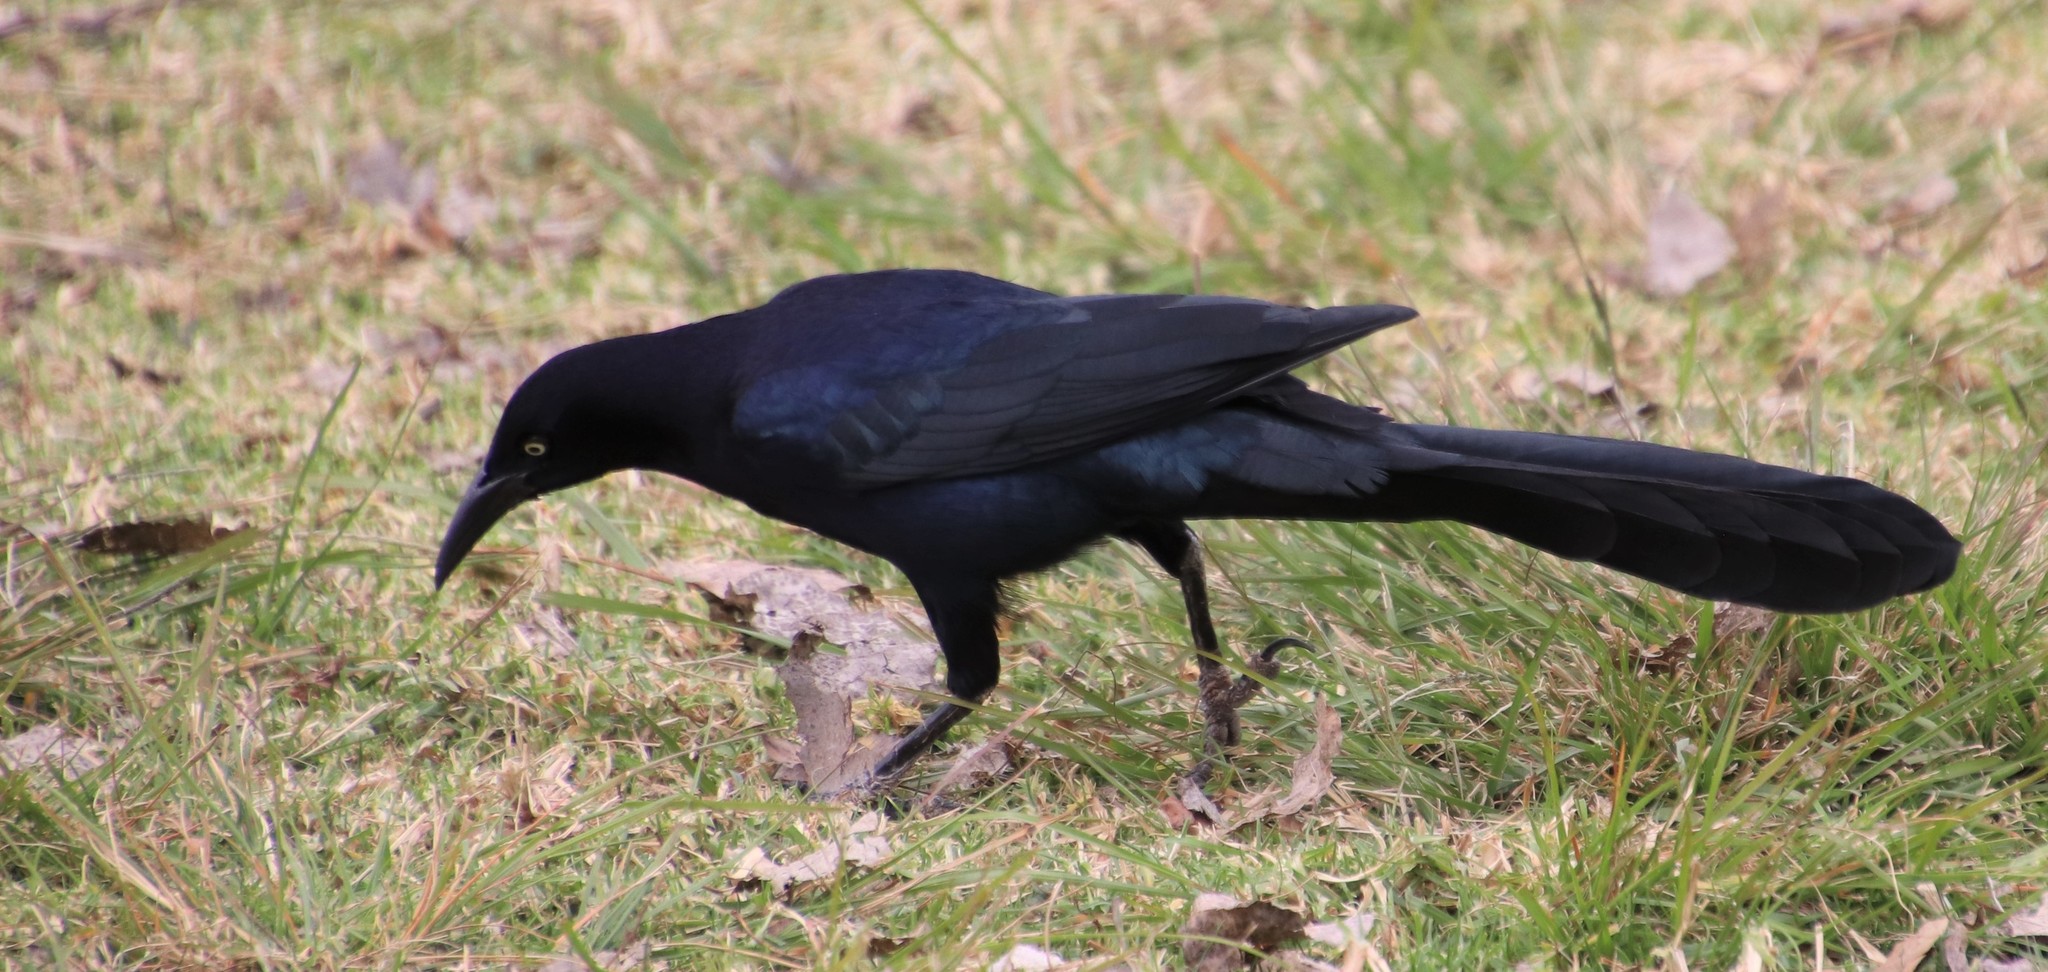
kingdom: Animalia
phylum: Chordata
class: Aves
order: Passeriformes
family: Icteridae
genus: Quiscalus
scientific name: Quiscalus mexicanus
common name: Great-tailed grackle
